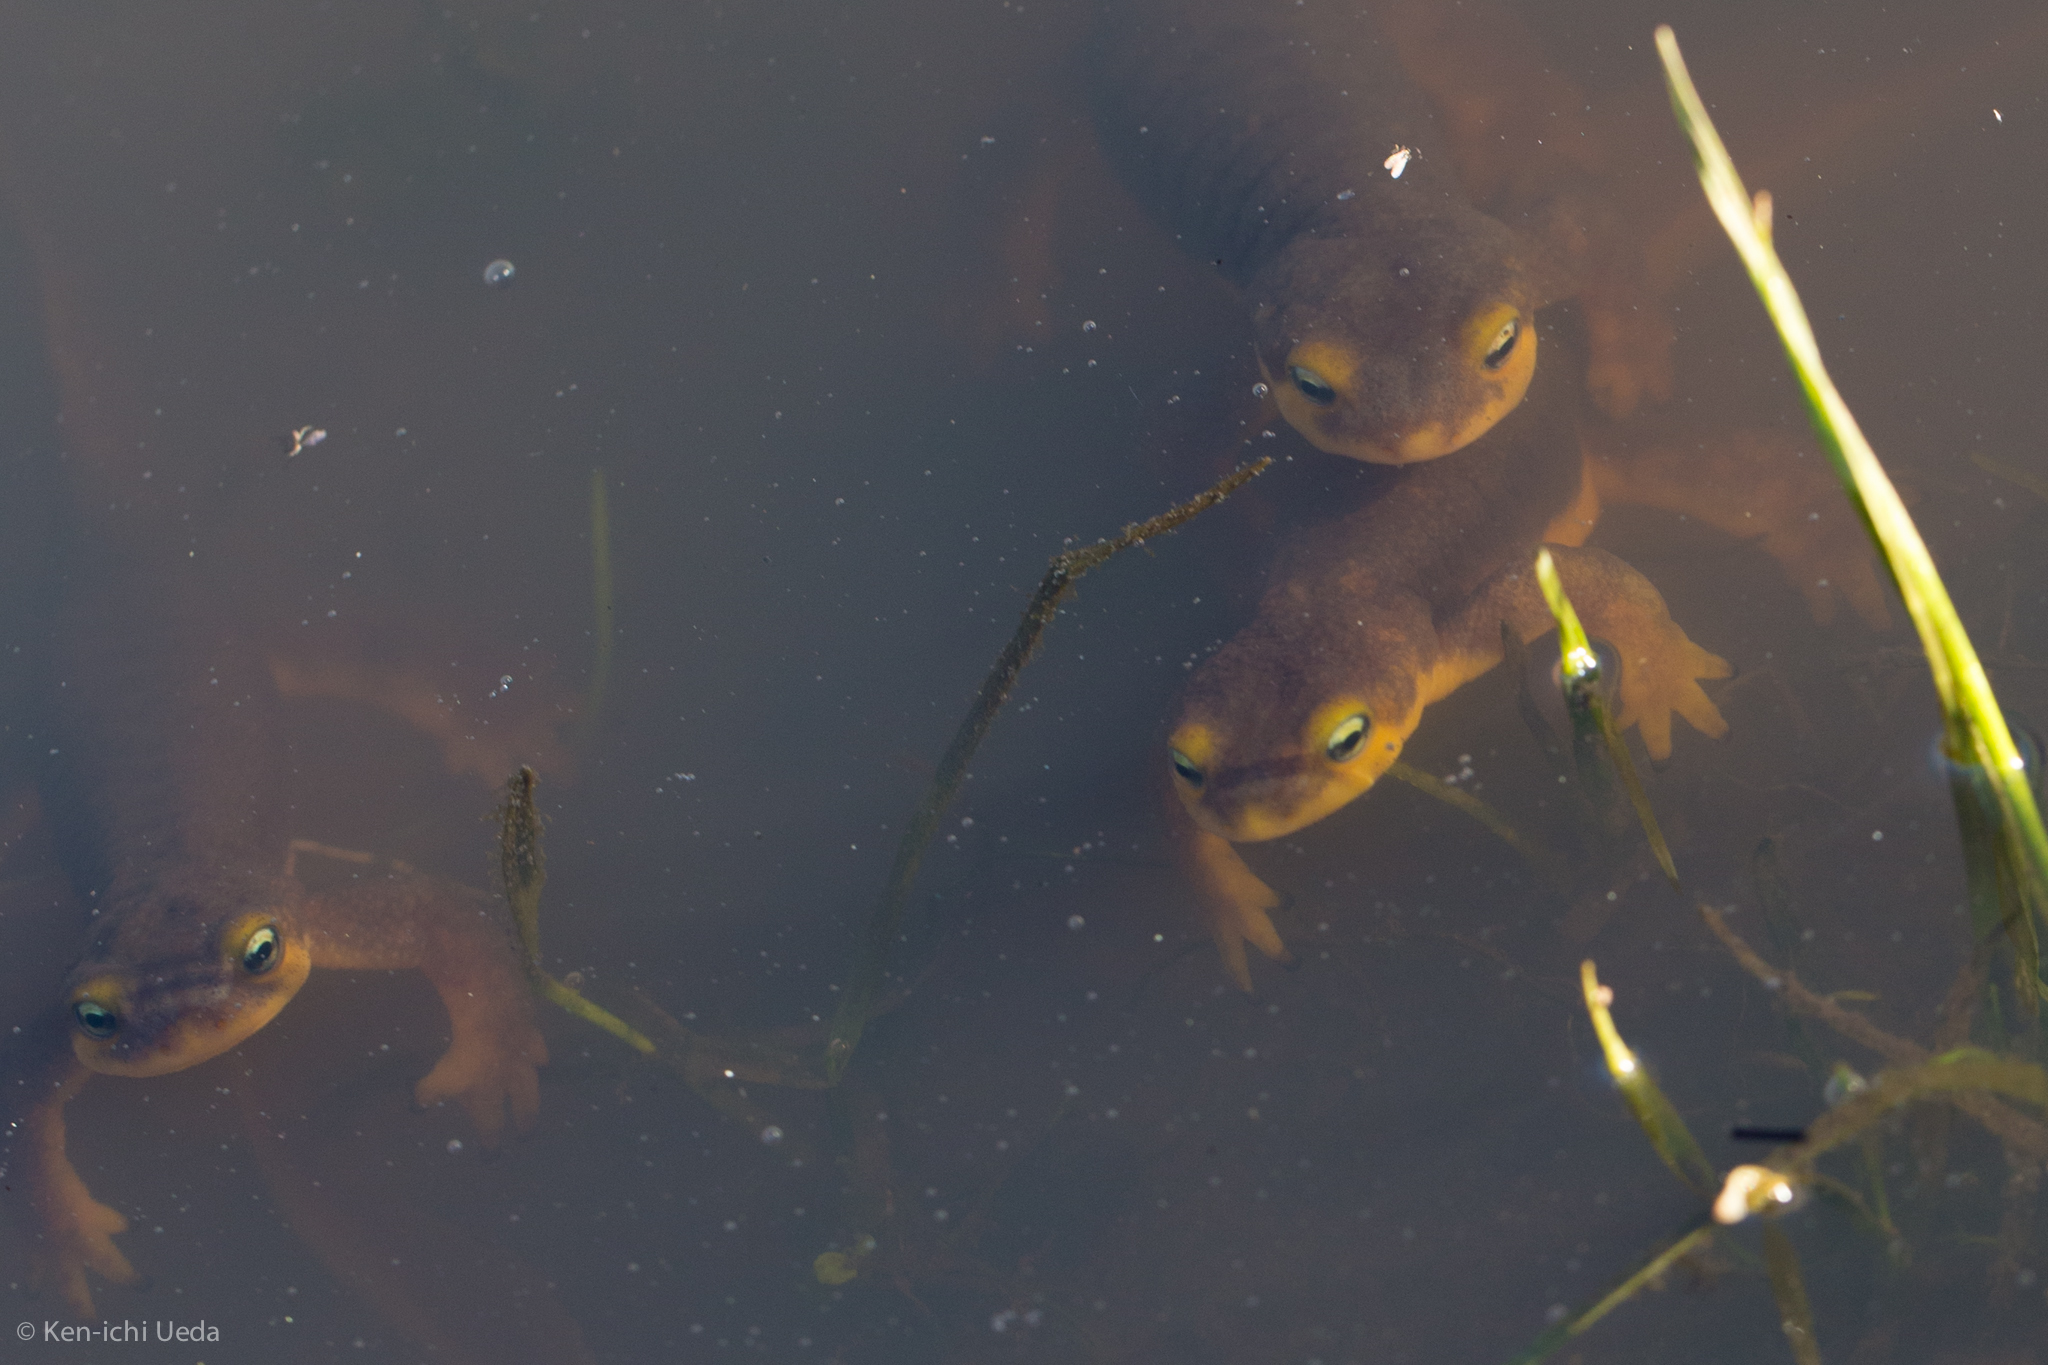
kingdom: Animalia
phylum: Chordata
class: Amphibia
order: Caudata
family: Salamandridae
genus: Taricha
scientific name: Taricha torosa
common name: California newt
